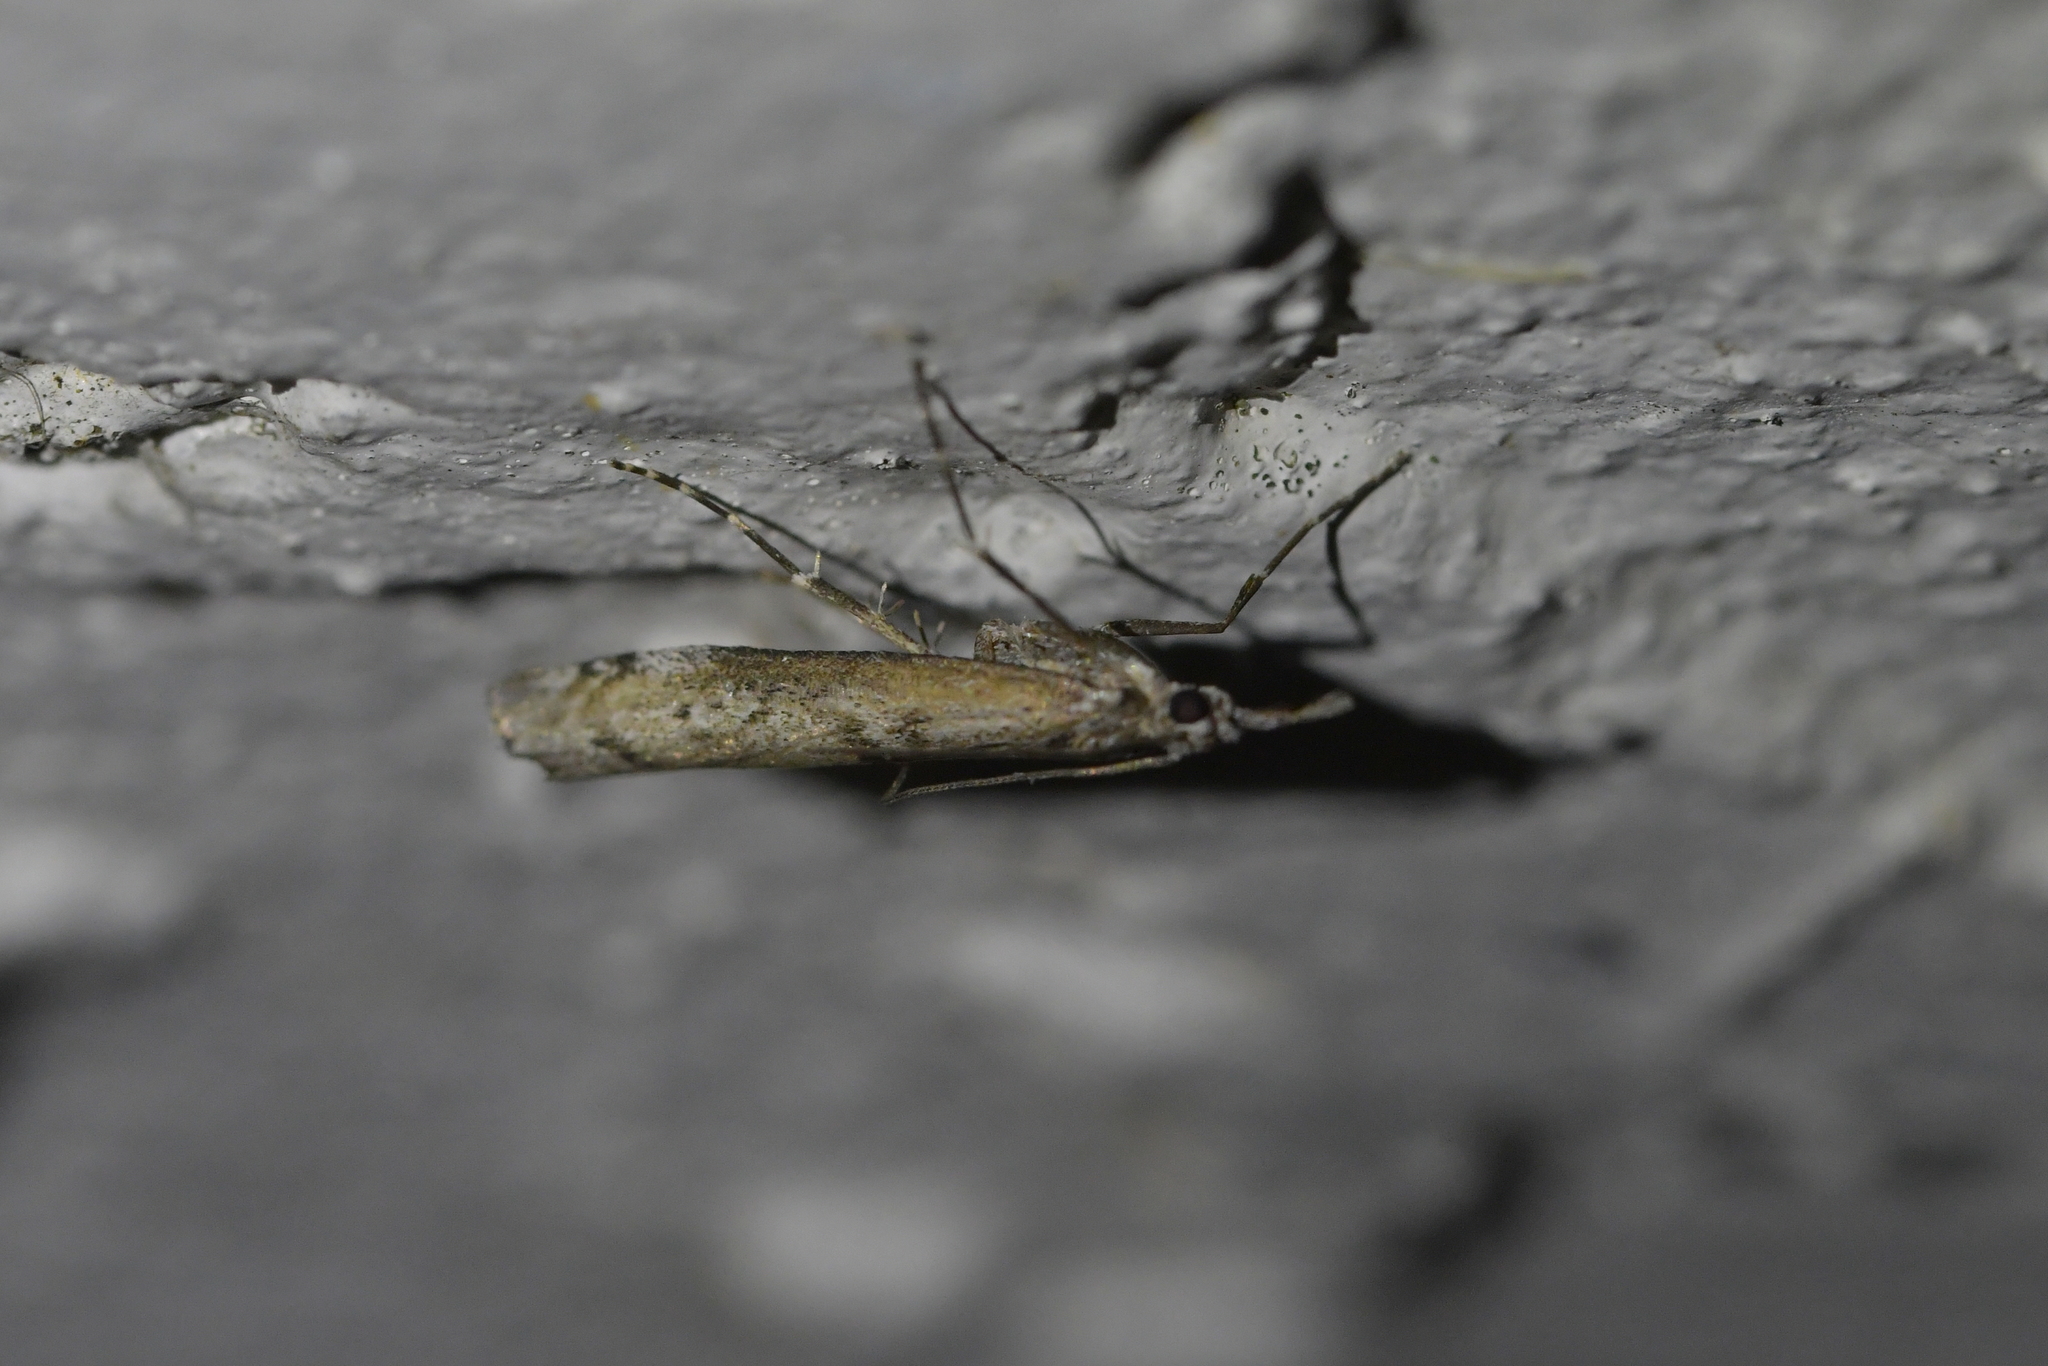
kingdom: Animalia
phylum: Arthropoda
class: Insecta
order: Lepidoptera
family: Crambidae
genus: Orocrambus
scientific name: Orocrambus cyclopicus
